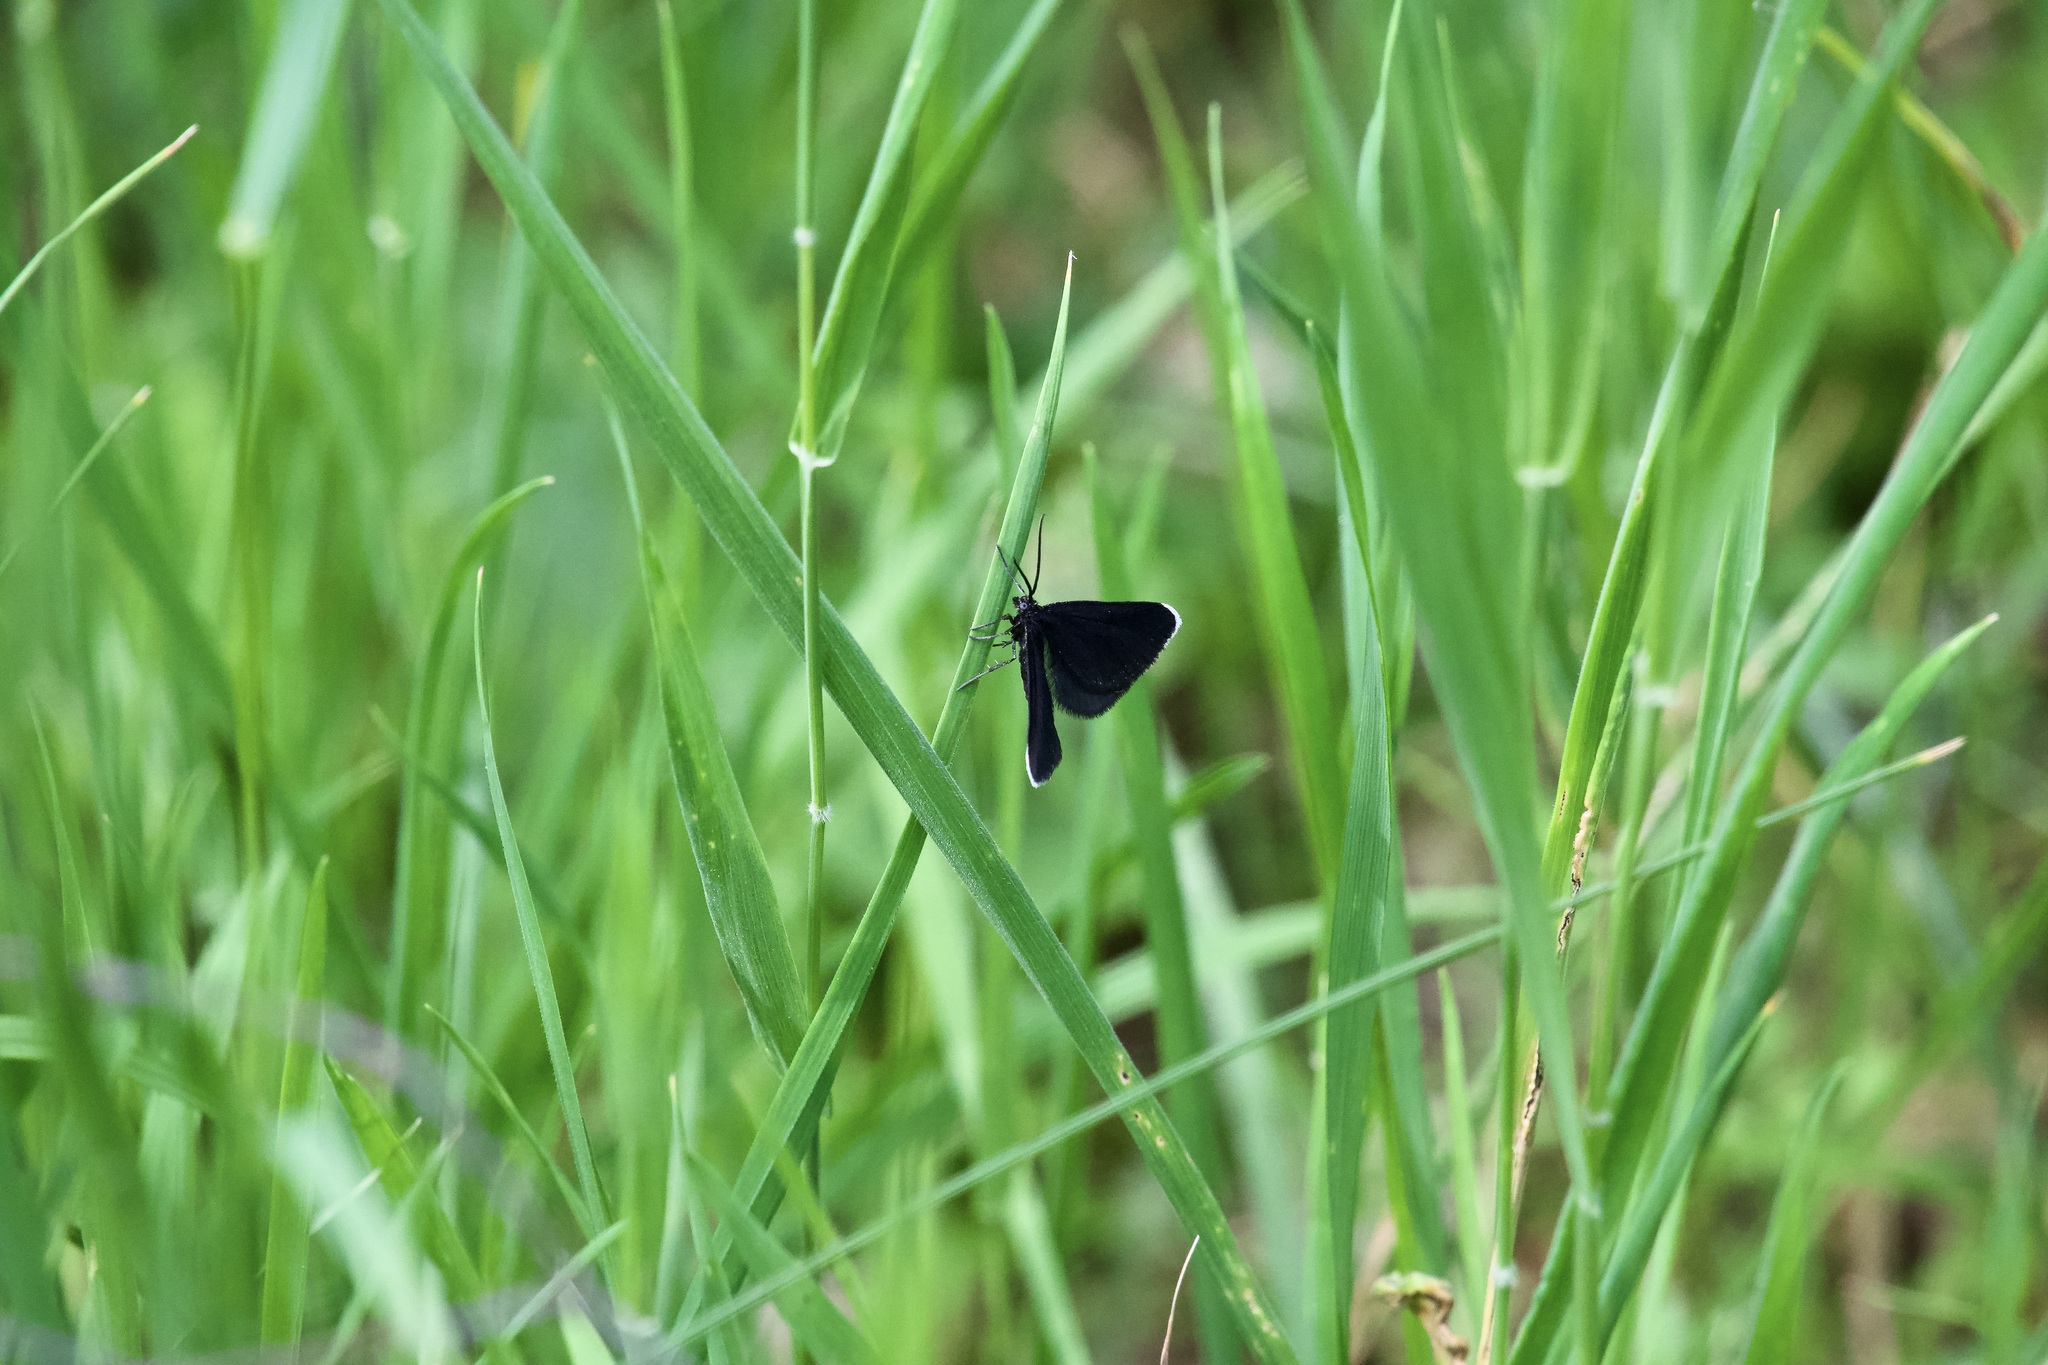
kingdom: Animalia
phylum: Arthropoda
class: Insecta
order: Lepidoptera
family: Geometridae
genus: Odezia
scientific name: Odezia atrata
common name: Chimney sweeper
